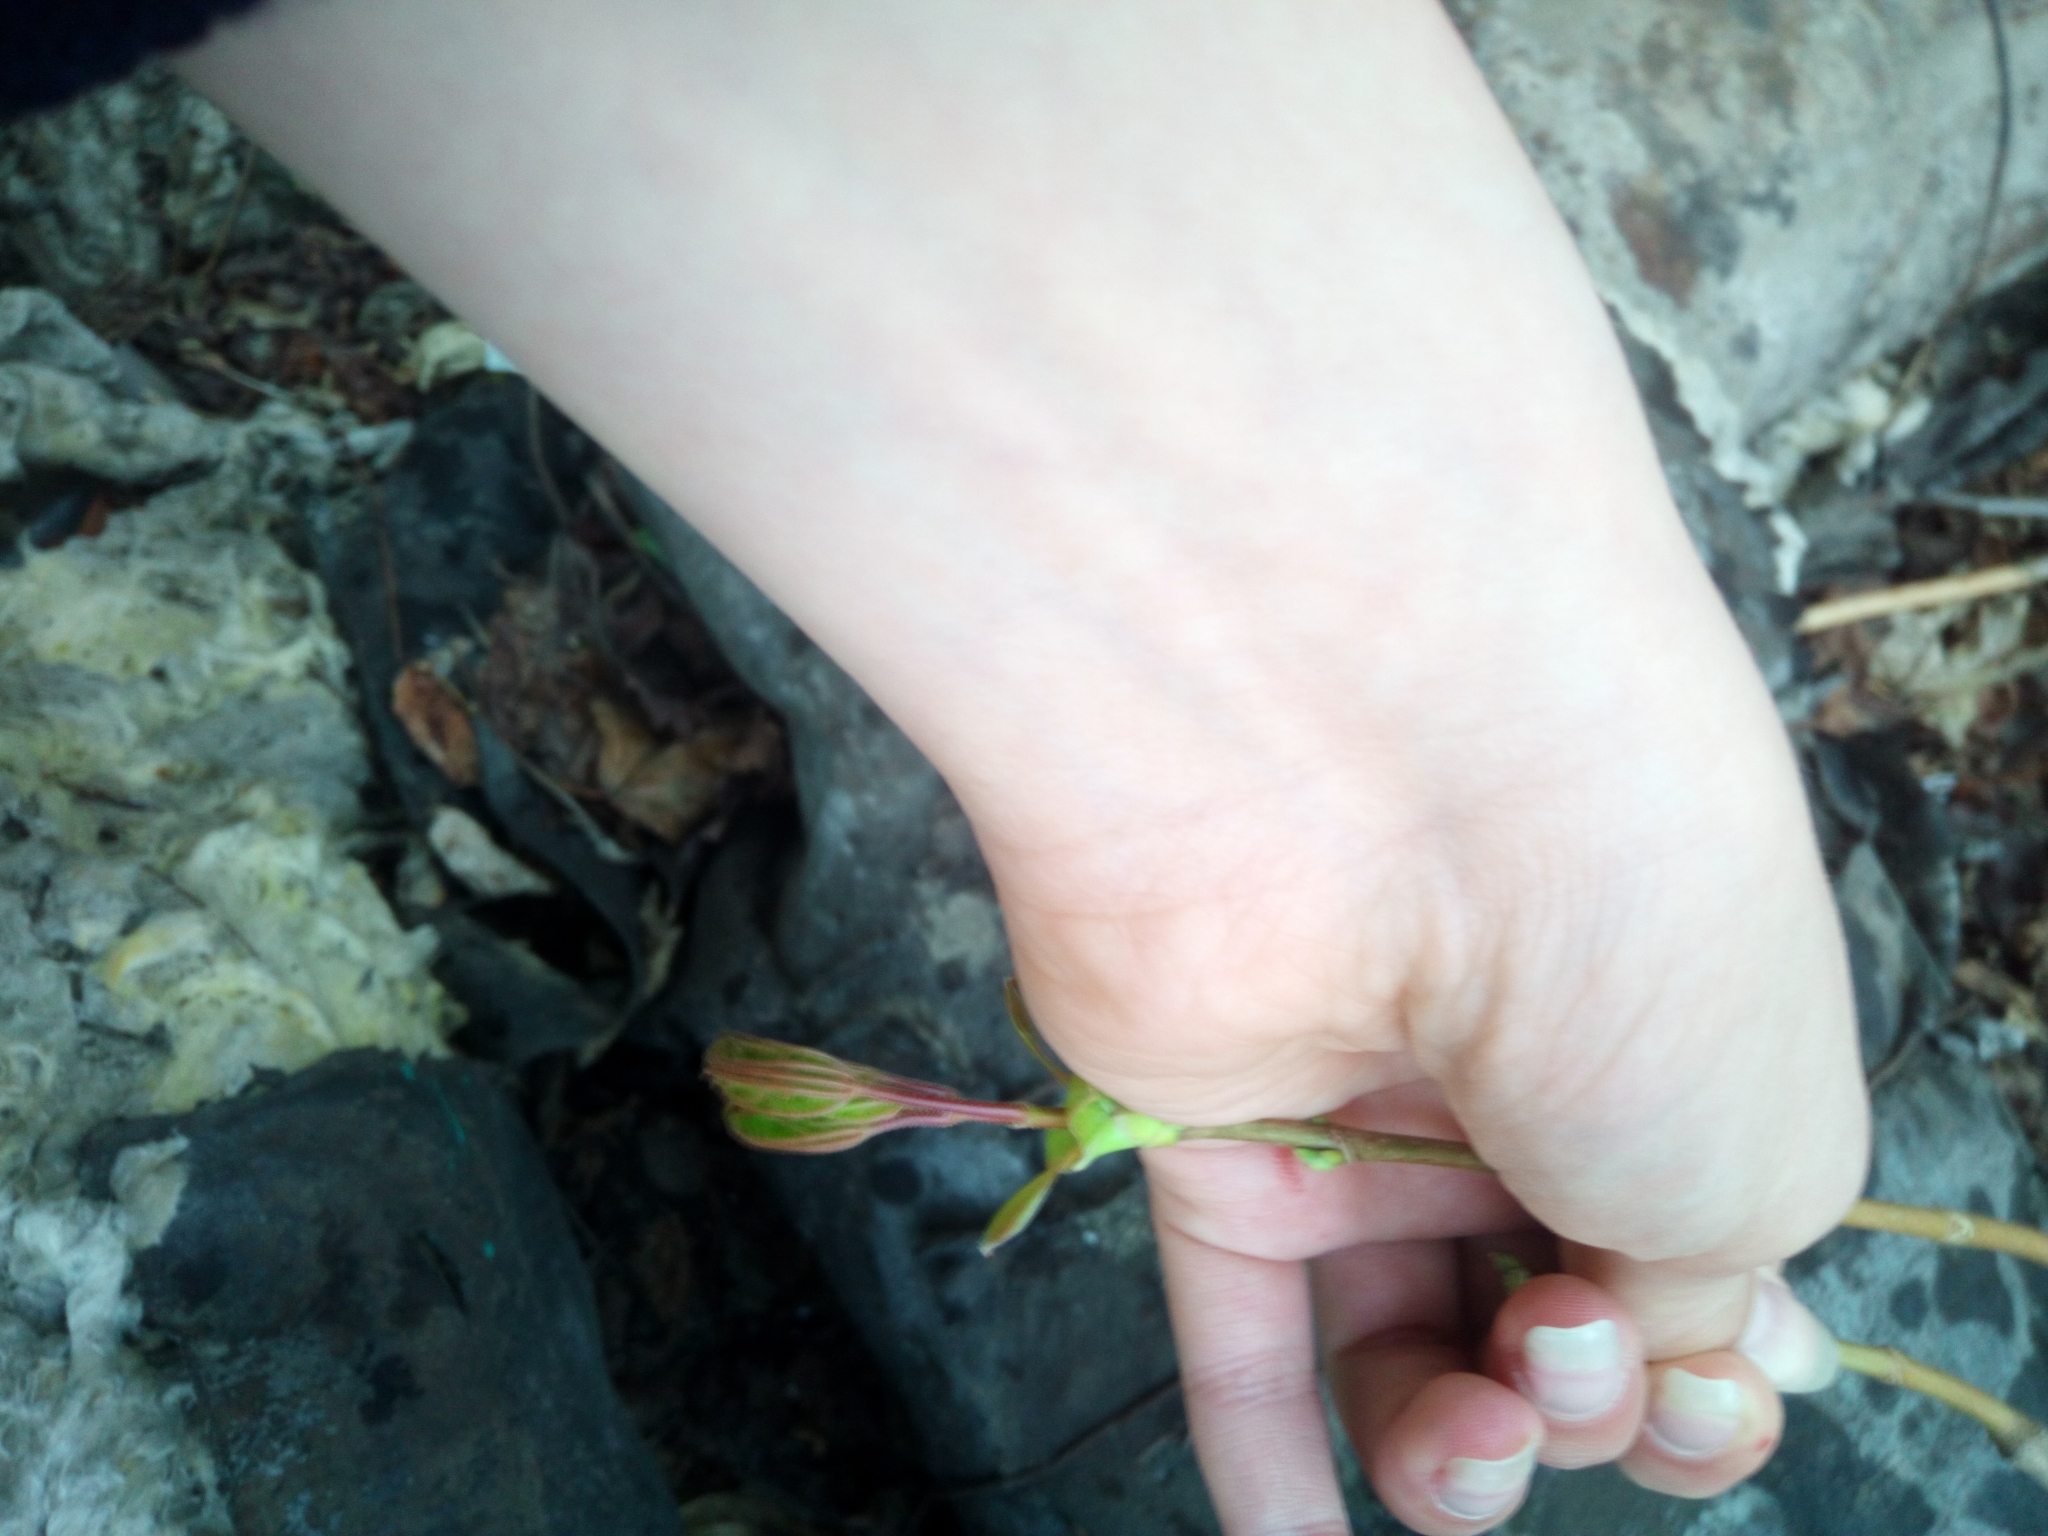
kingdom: Plantae
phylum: Tracheophyta
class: Magnoliopsida
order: Sapindales
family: Sapindaceae
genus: Acer
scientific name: Acer platanoides
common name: Norway maple
